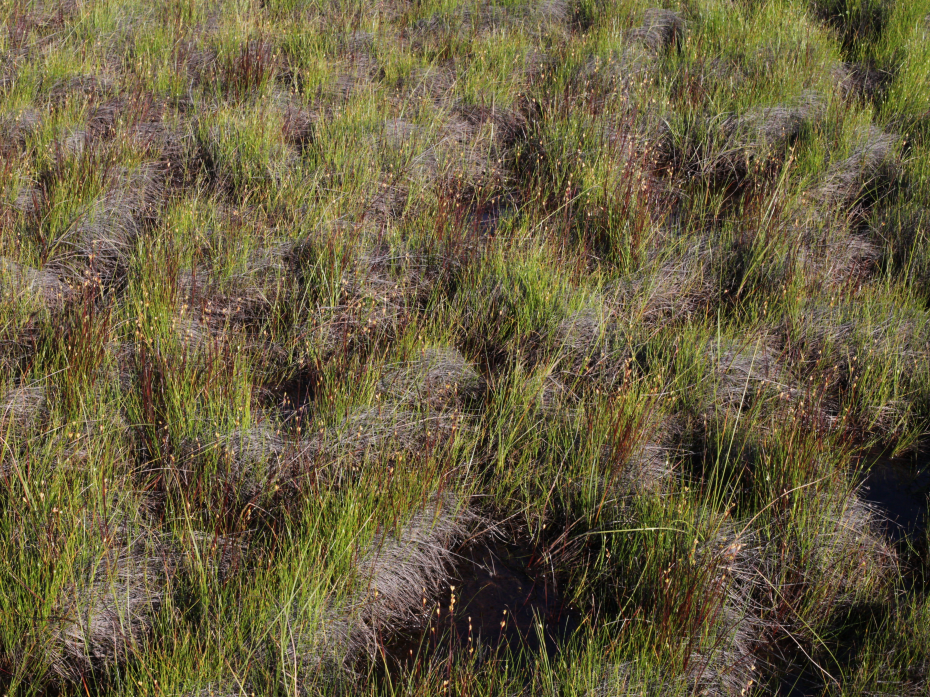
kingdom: Plantae
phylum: Tracheophyta
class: Liliopsida
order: Poales
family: Juncaceae
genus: Juncus
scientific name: Juncus stygius
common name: Bog rush
